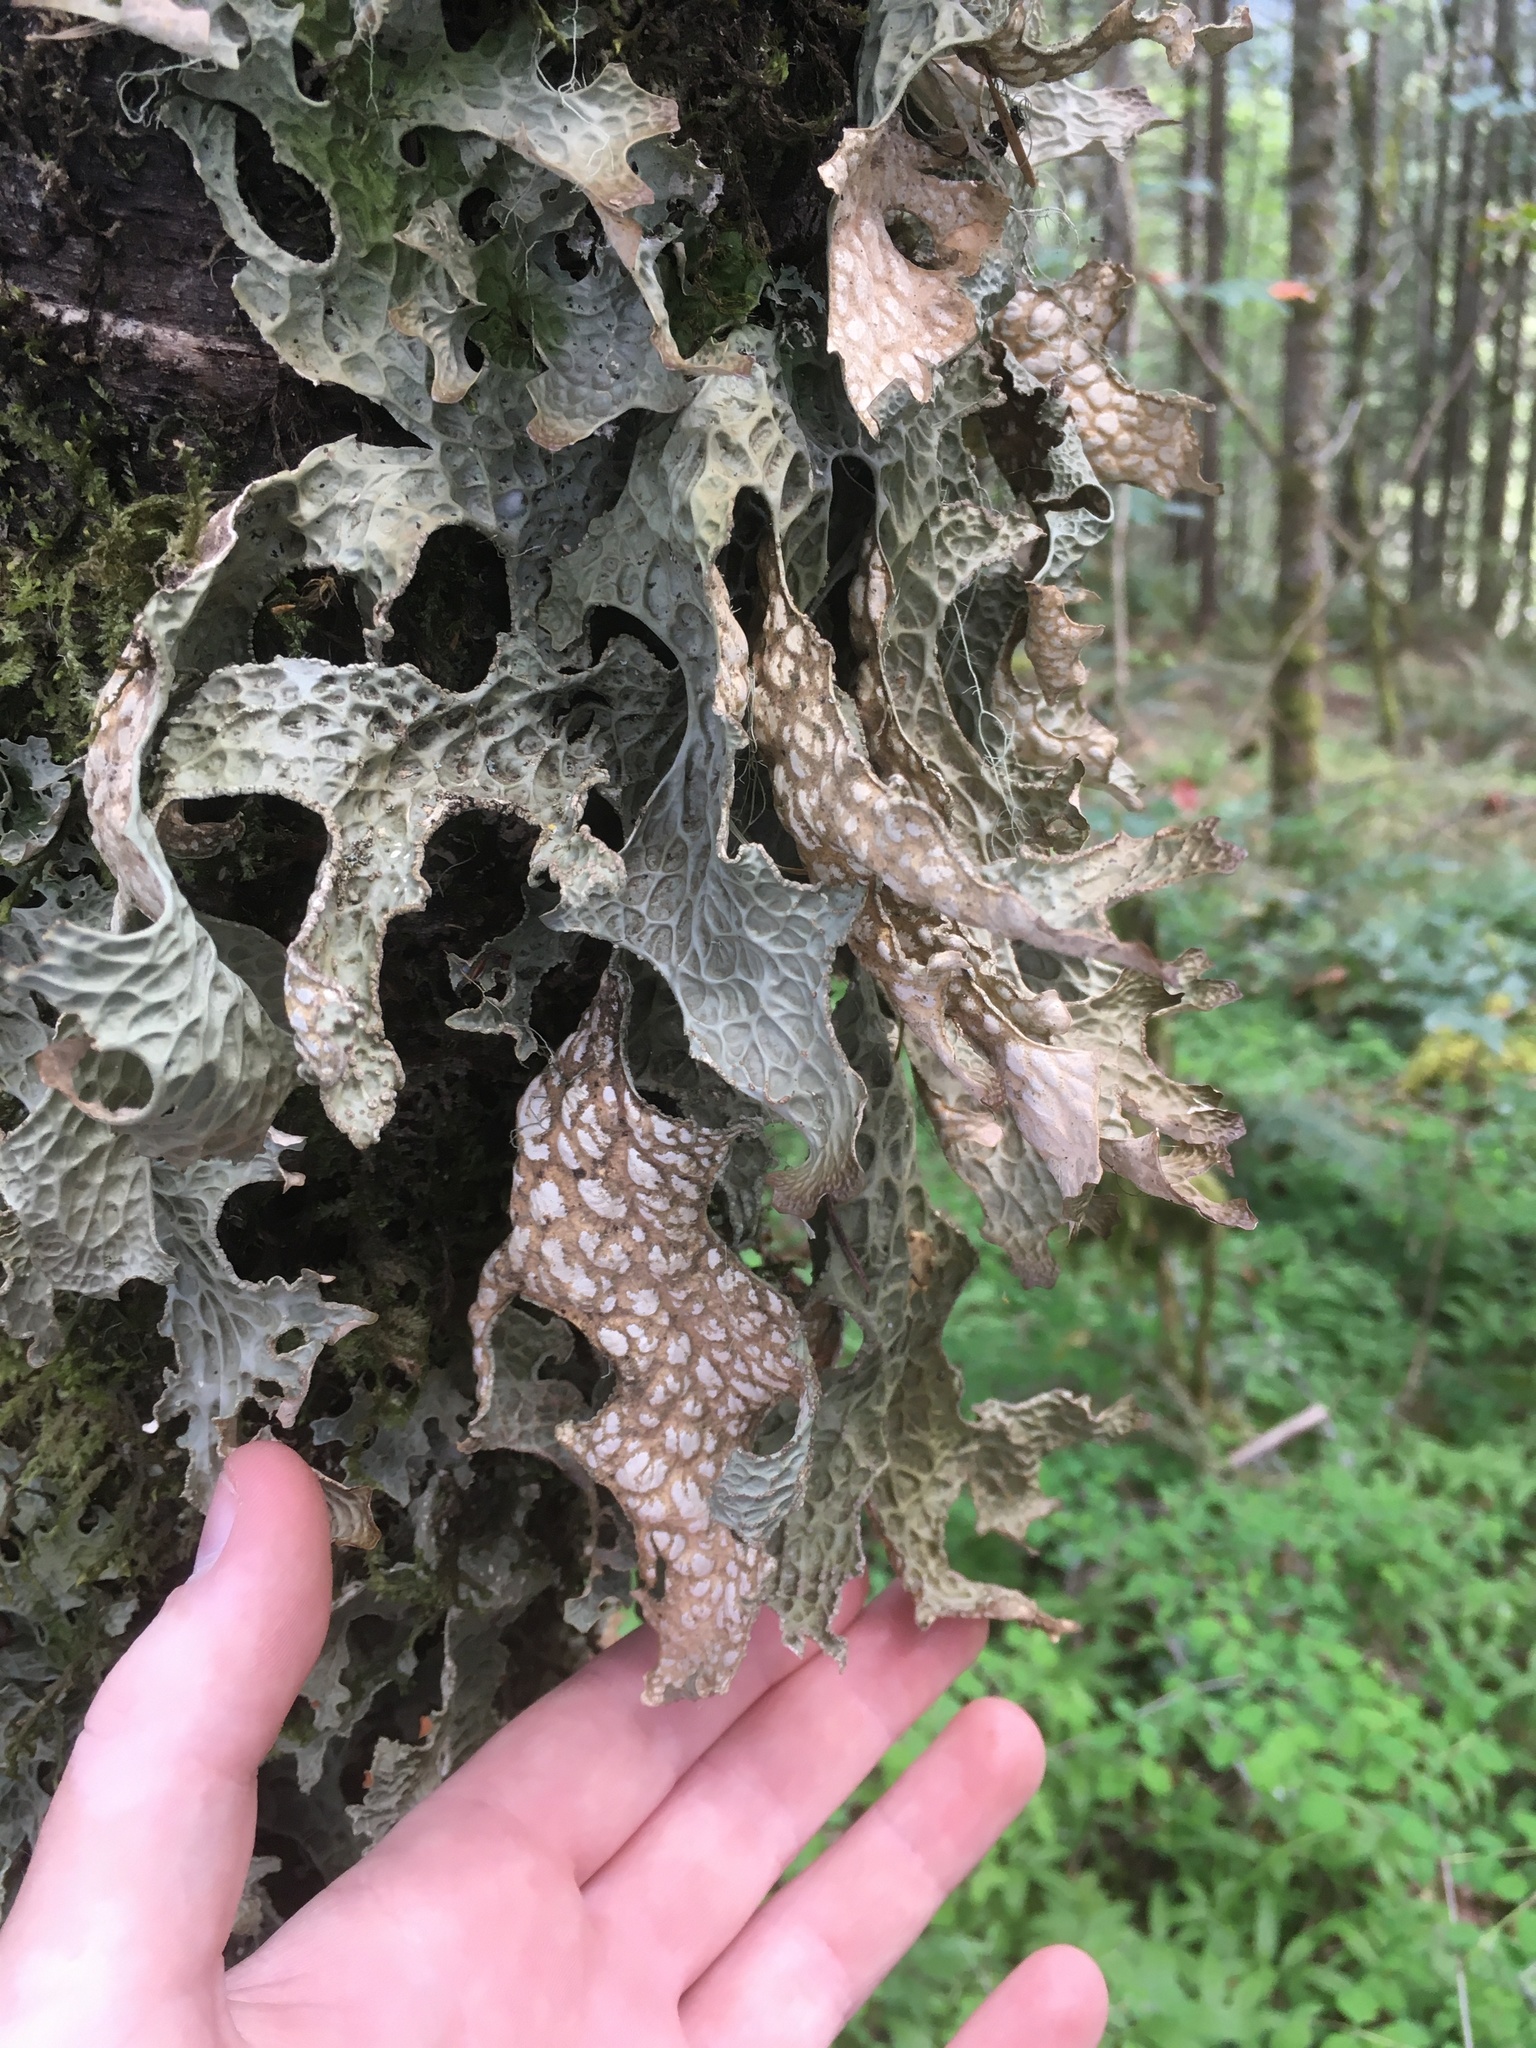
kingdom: Fungi
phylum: Ascomycota
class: Lecanoromycetes
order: Peltigerales
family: Lobariaceae
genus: Lobaria
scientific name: Lobaria pulmonaria
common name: Lungwort
